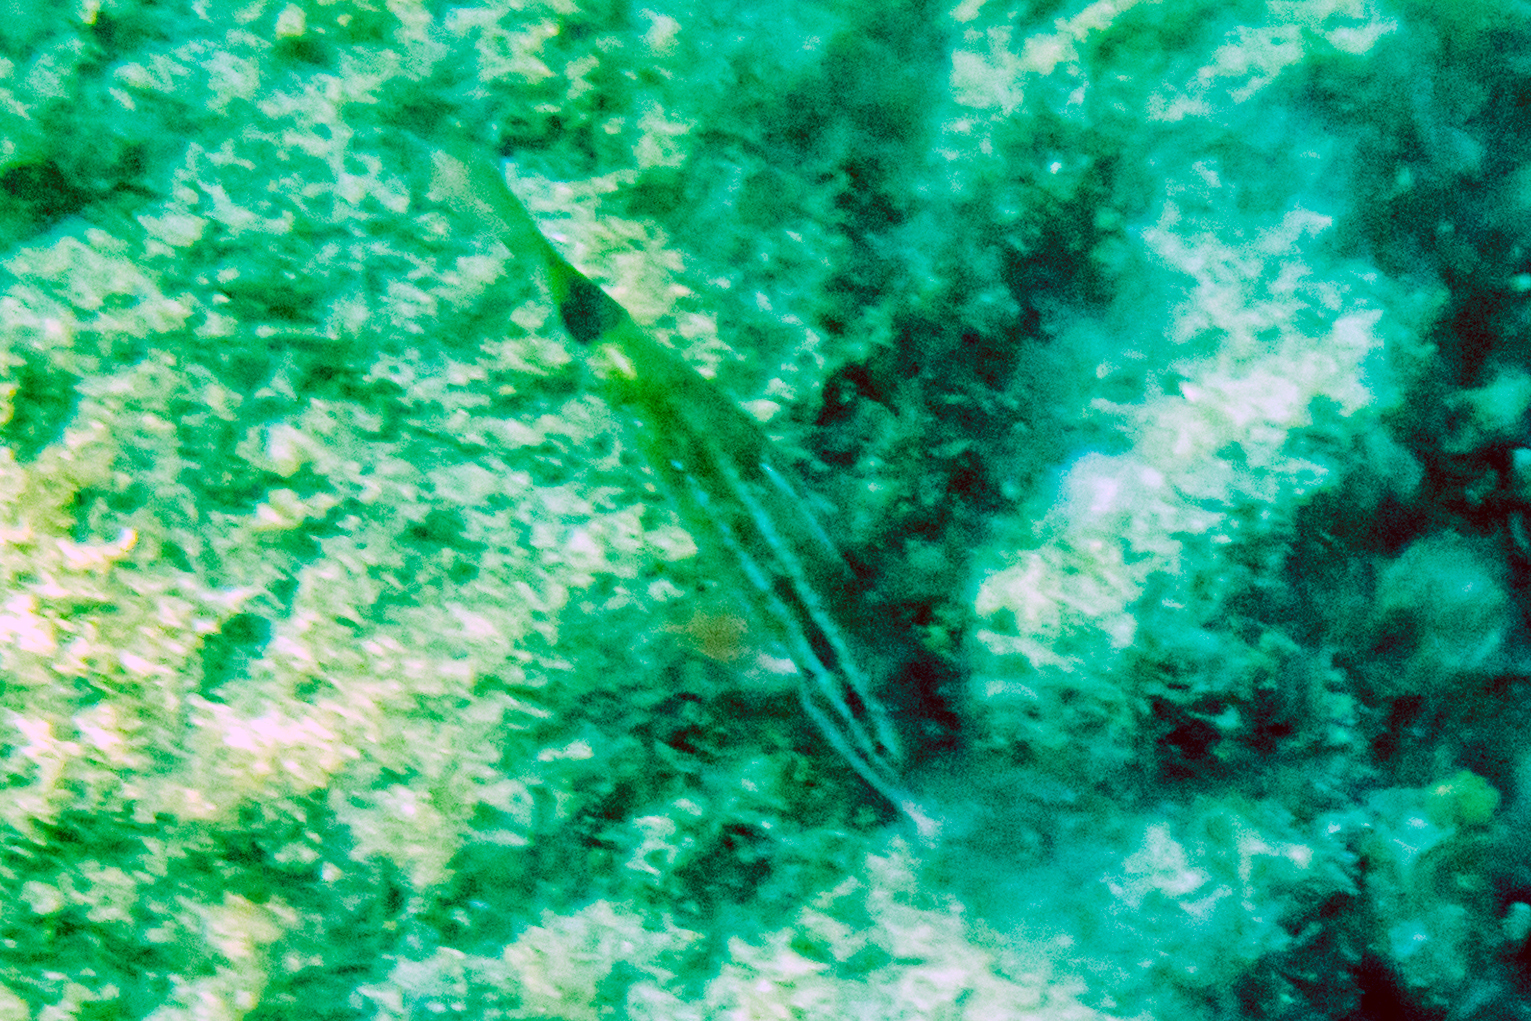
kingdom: Animalia
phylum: Chordata
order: Perciformes
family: Mullidae
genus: Parupeneus
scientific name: Parupeneus spilurus
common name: Blackspot goatfish
